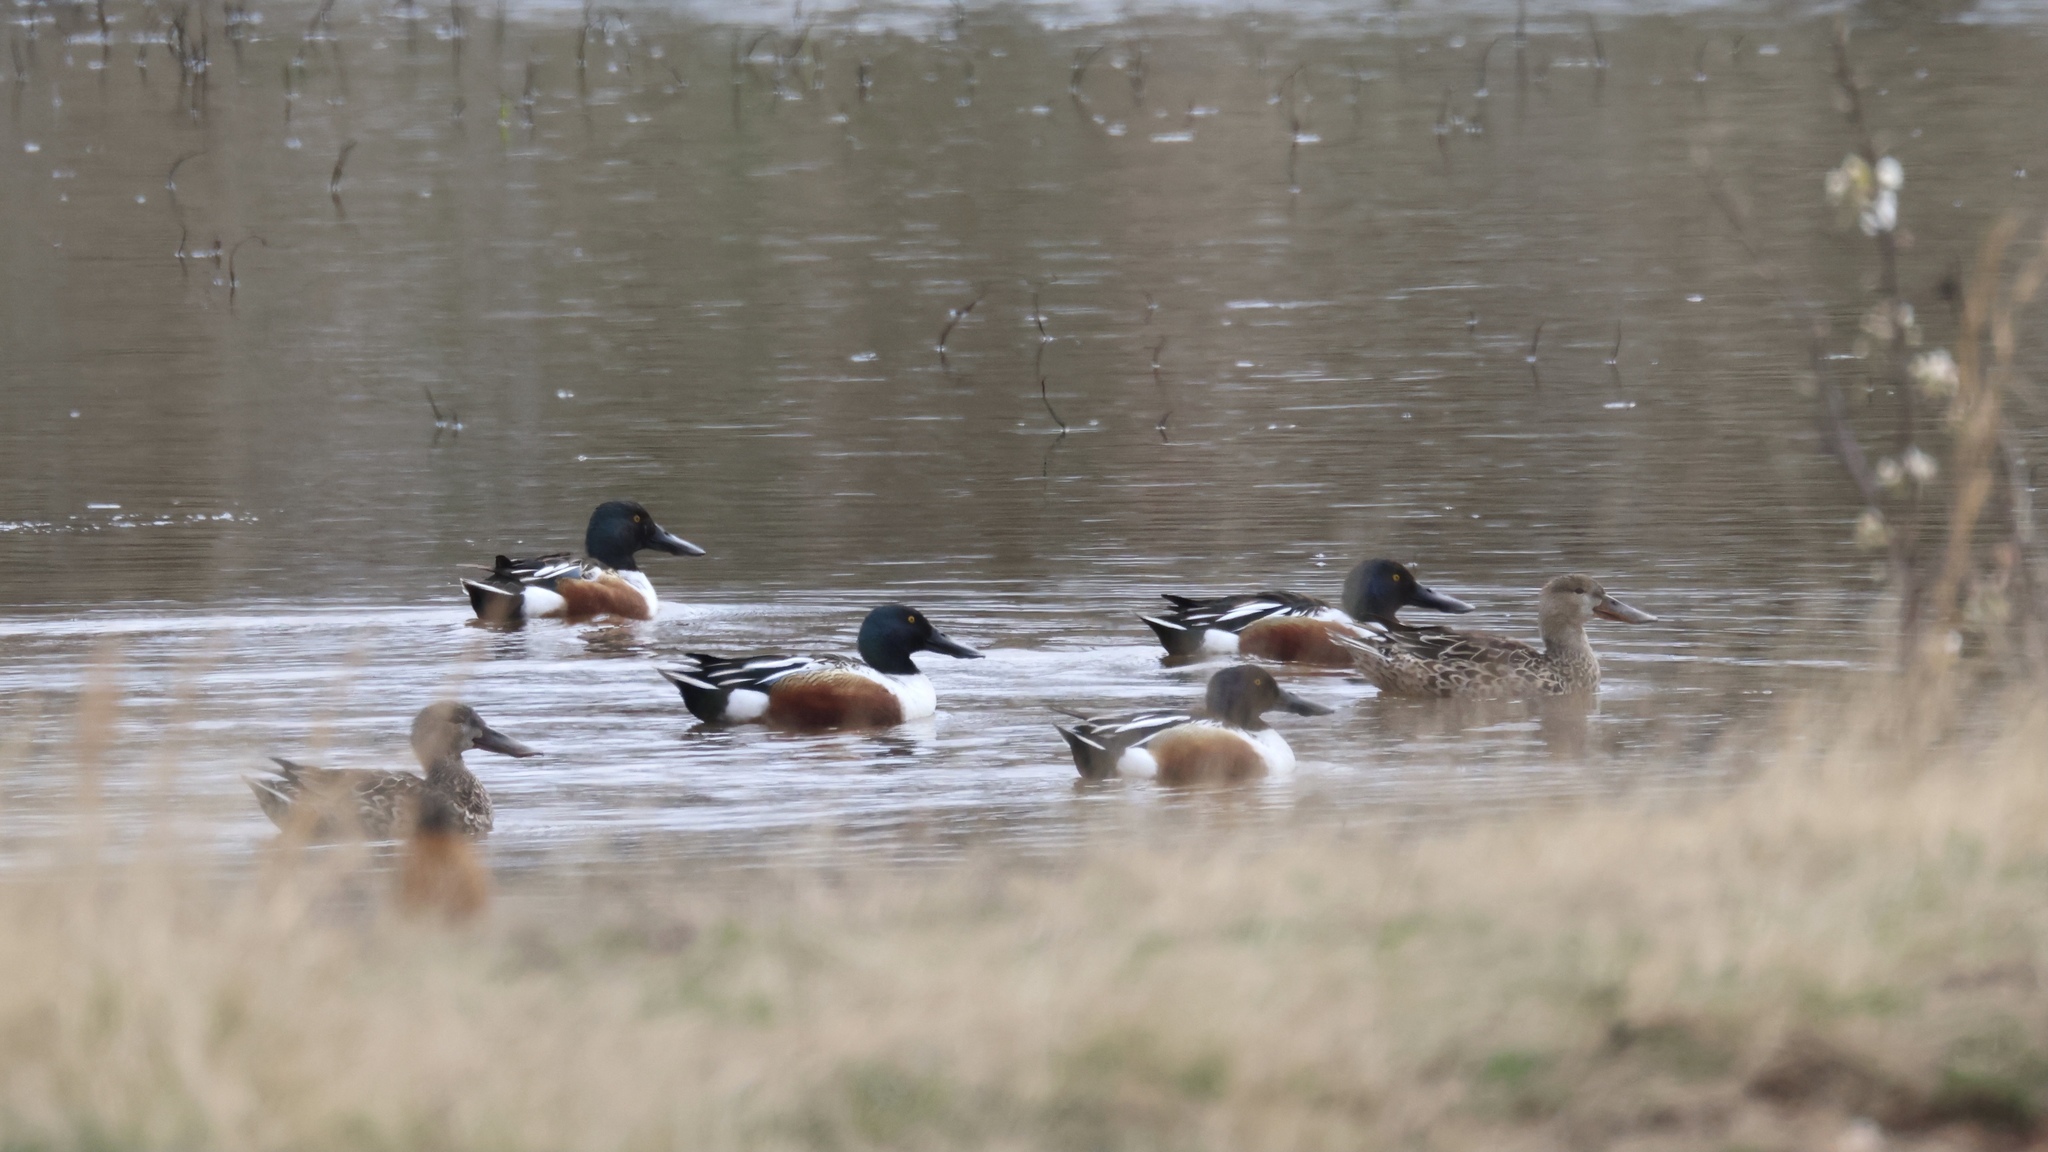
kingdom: Animalia
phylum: Chordata
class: Aves
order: Anseriformes
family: Anatidae
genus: Spatula
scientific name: Spatula clypeata
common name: Northern shoveler
